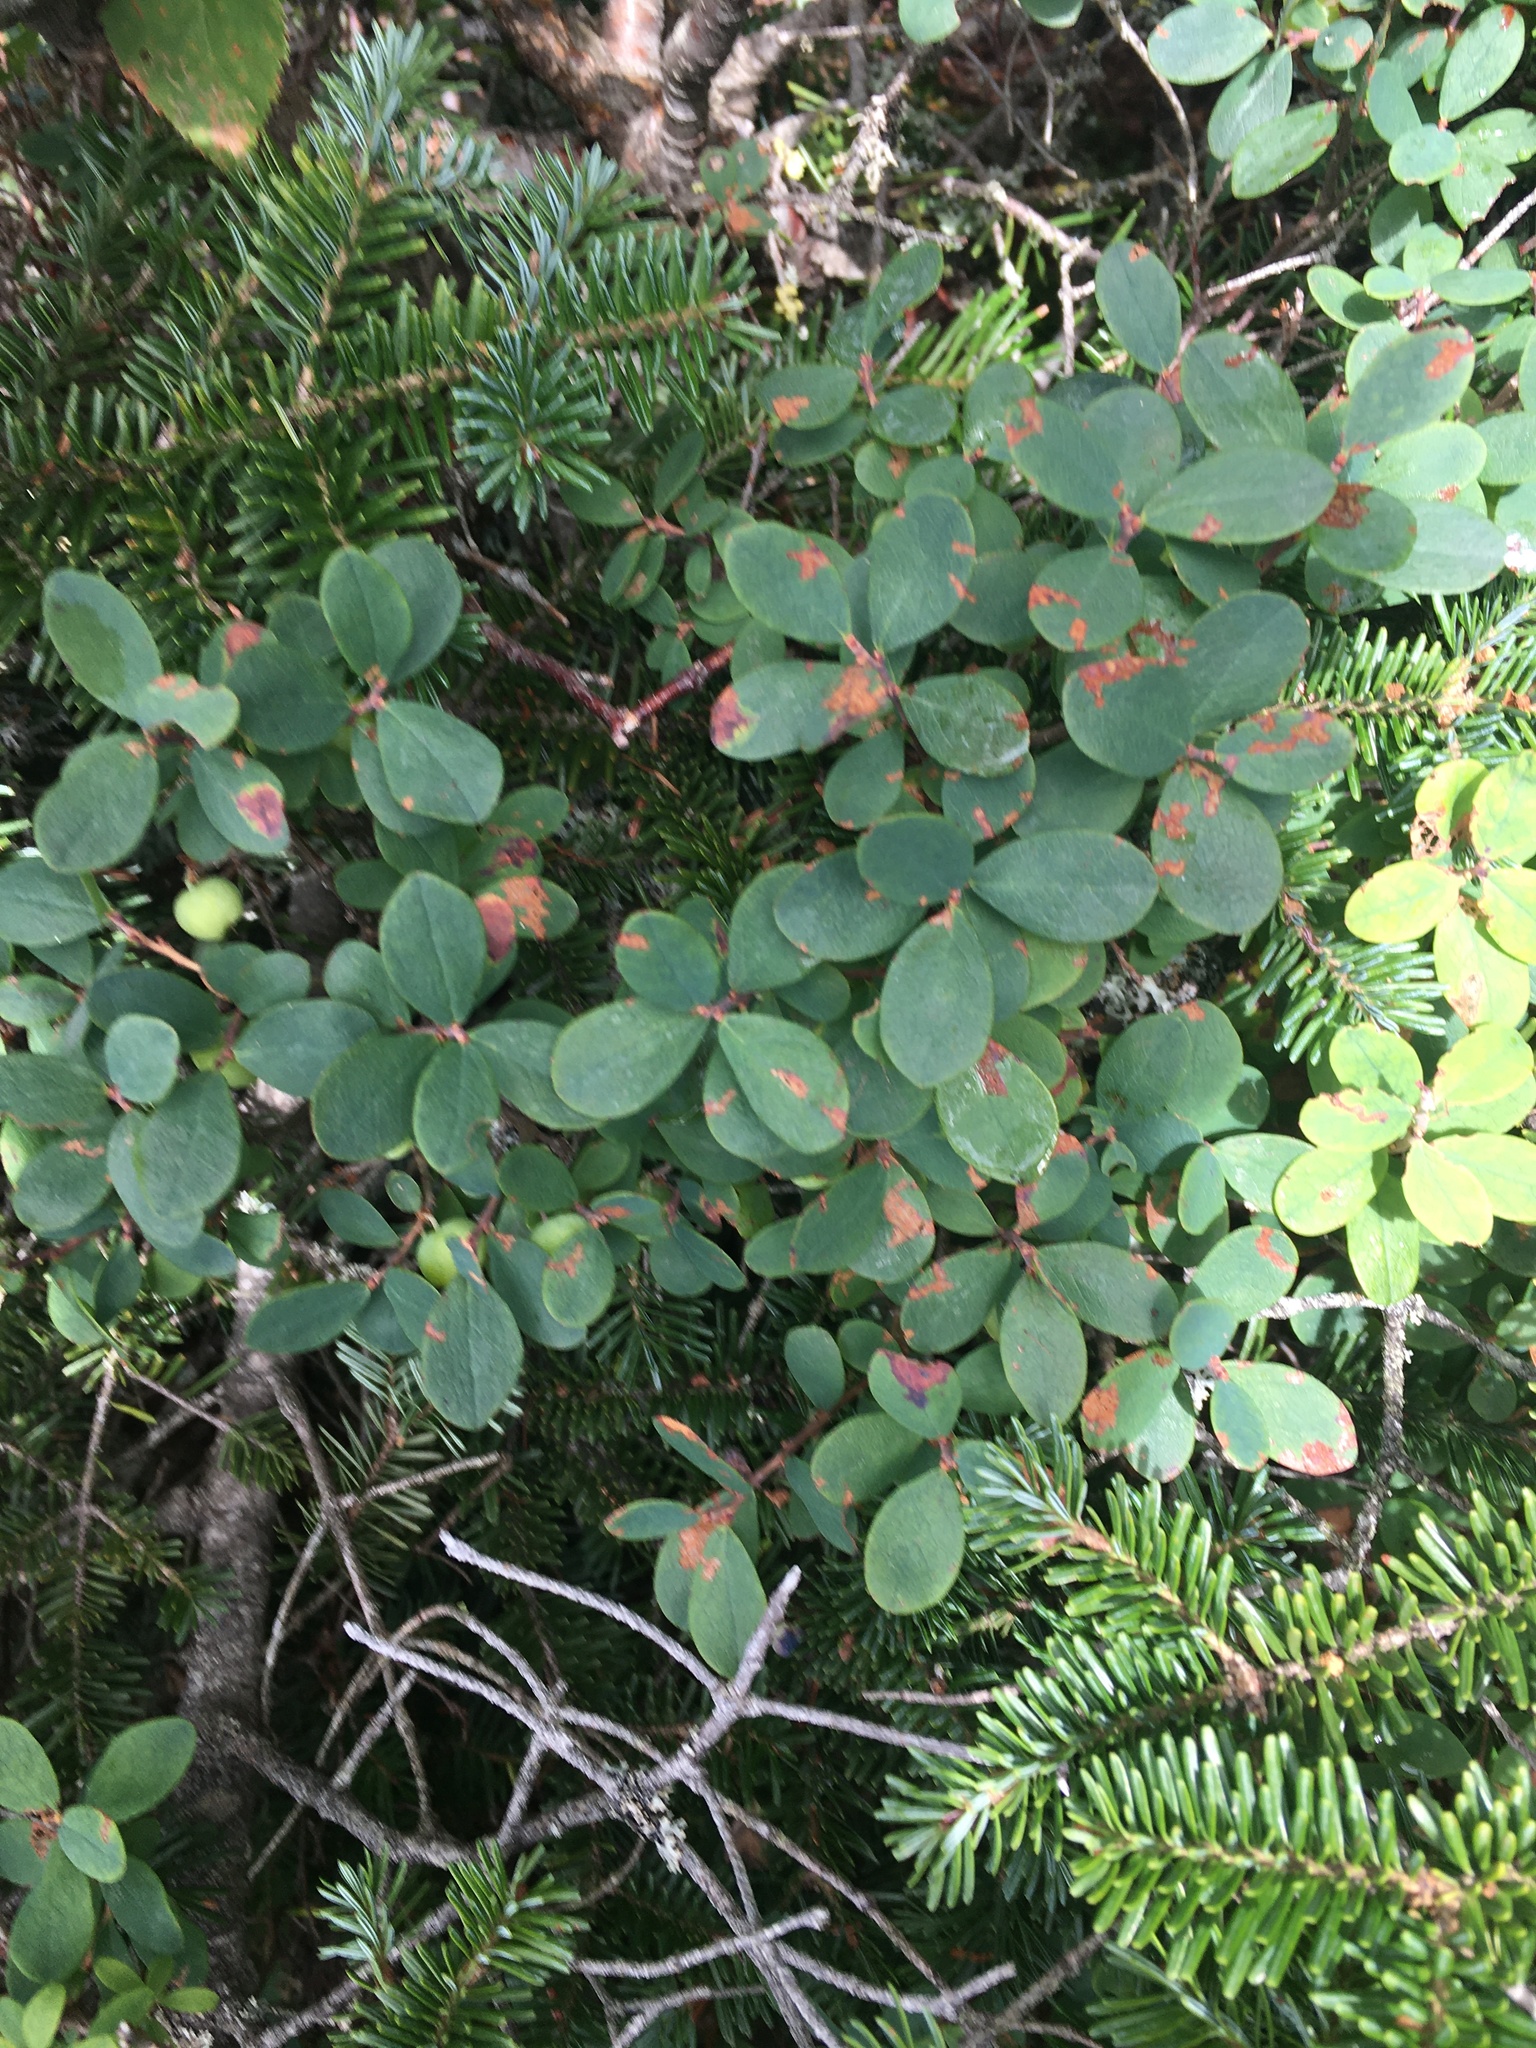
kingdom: Plantae
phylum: Tracheophyta
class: Magnoliopsida
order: Ericales
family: Ericaceae
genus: Vaccinium
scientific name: Vaccinium uliginosum
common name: Bog bilberry
